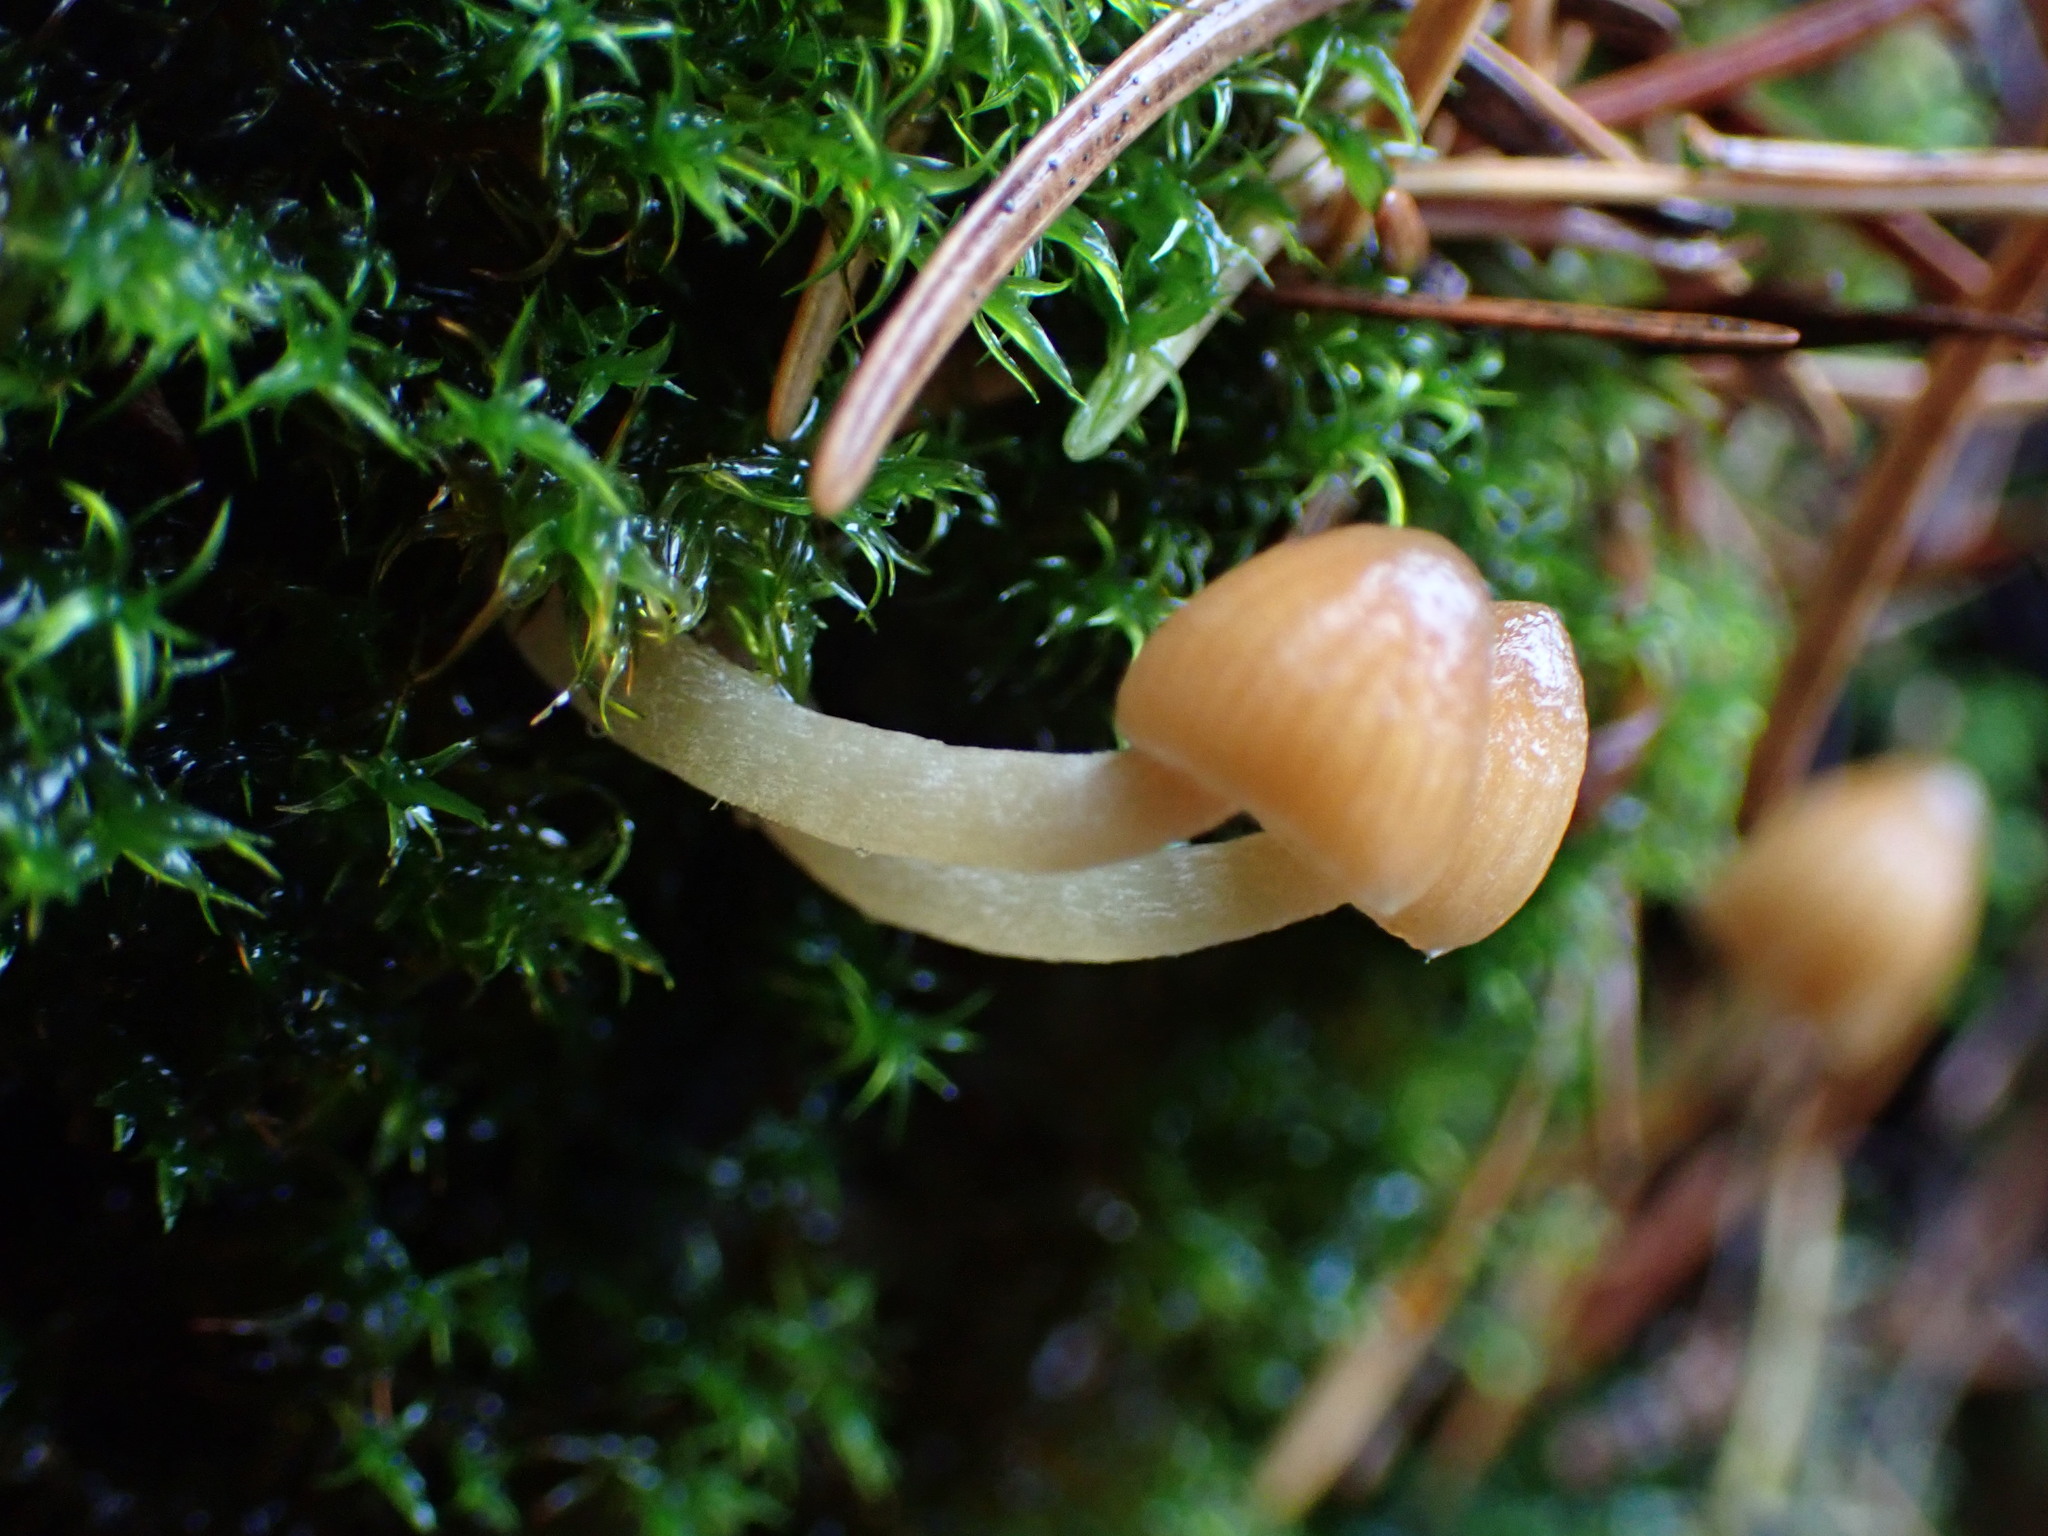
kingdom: Fungi
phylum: Basidiomycota
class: Agaricomycetes
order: Agaricales
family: Mycenaceae
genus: Atheniella
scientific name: Atheniella adonis
